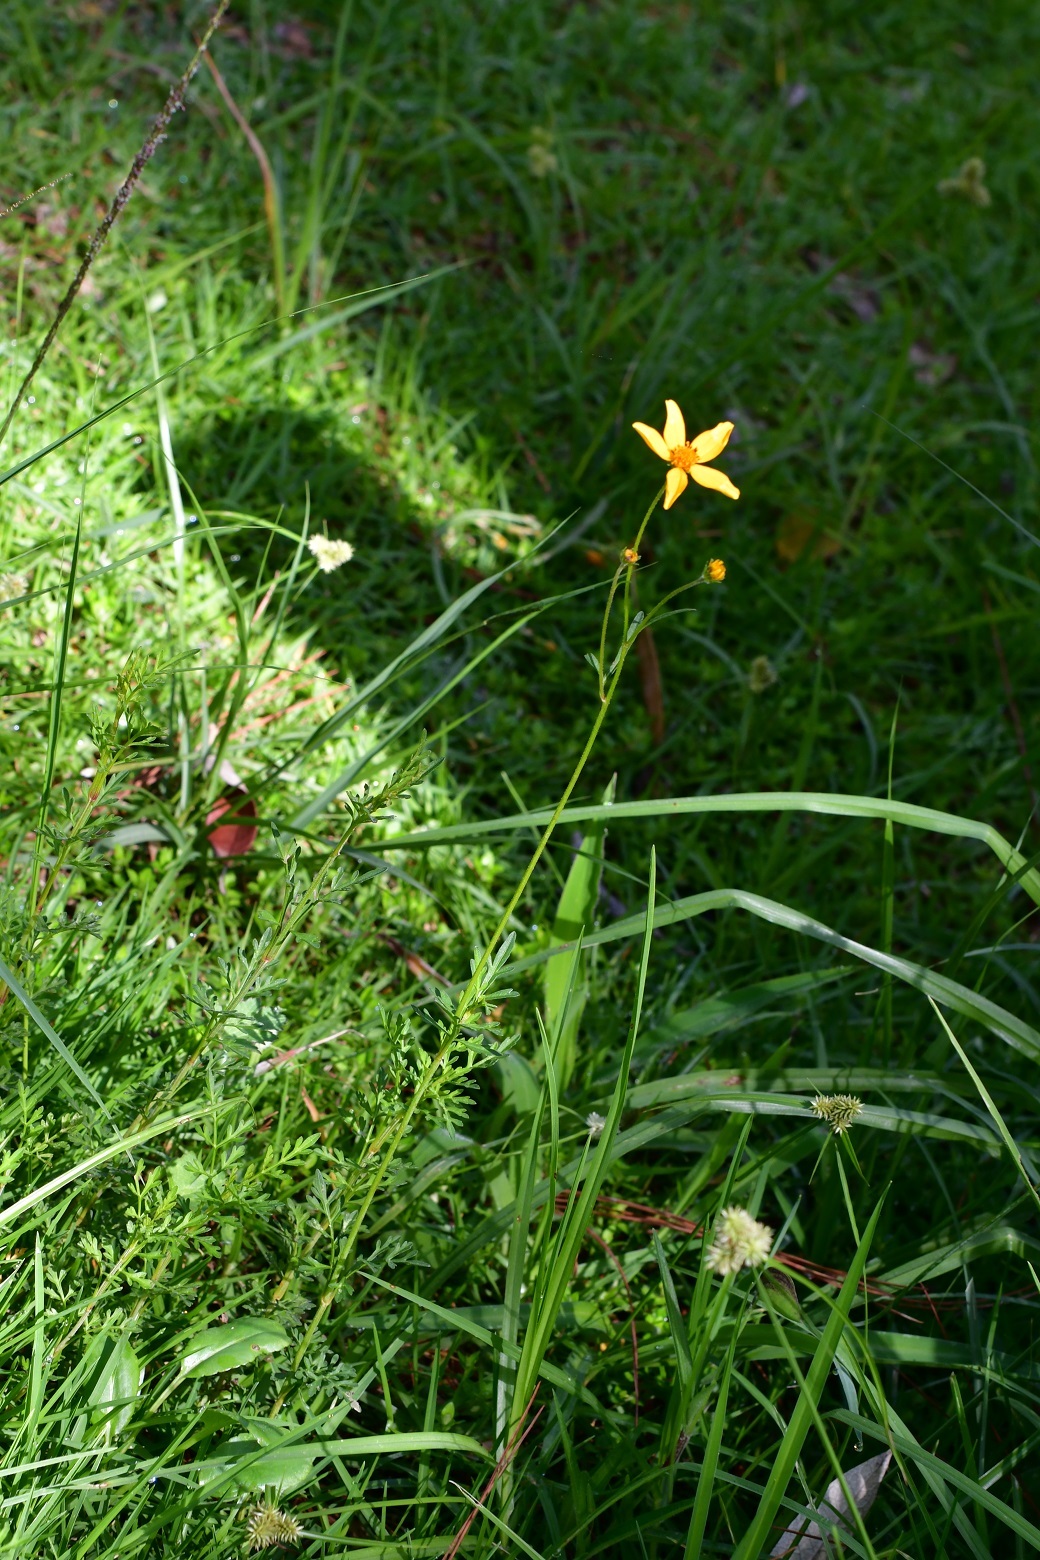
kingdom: Plantae
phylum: Tracheophyta
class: Magnoliopsida
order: Asterales
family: Asteraceae
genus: Bidens
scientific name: Bidens triplinervia
